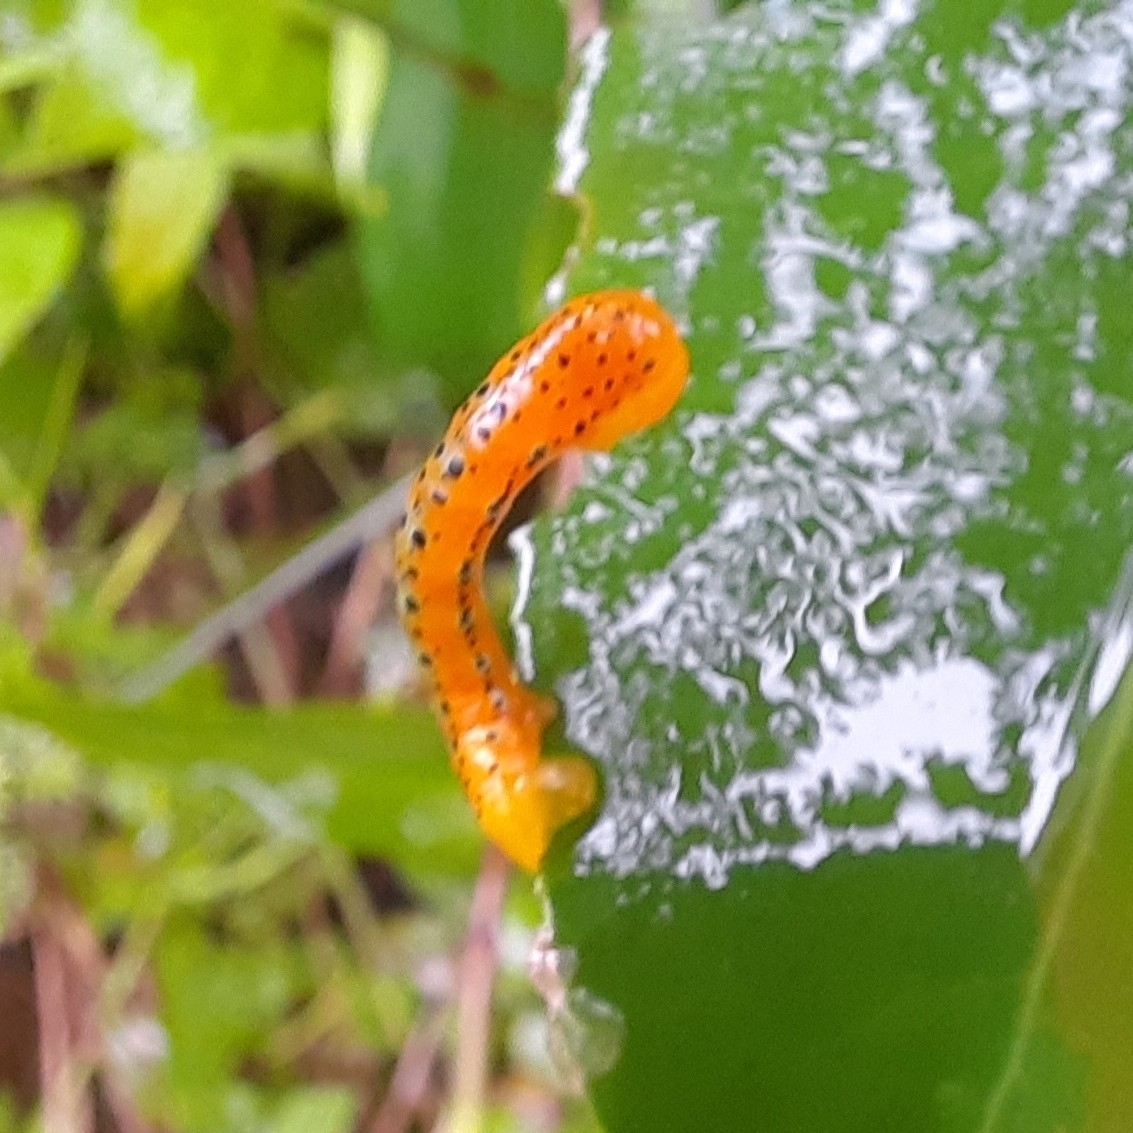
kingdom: Animalia
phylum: Arthropoda
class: Insecta
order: Lepidoptera
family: Geometridae
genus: Dysphania
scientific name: Dysphania percota
